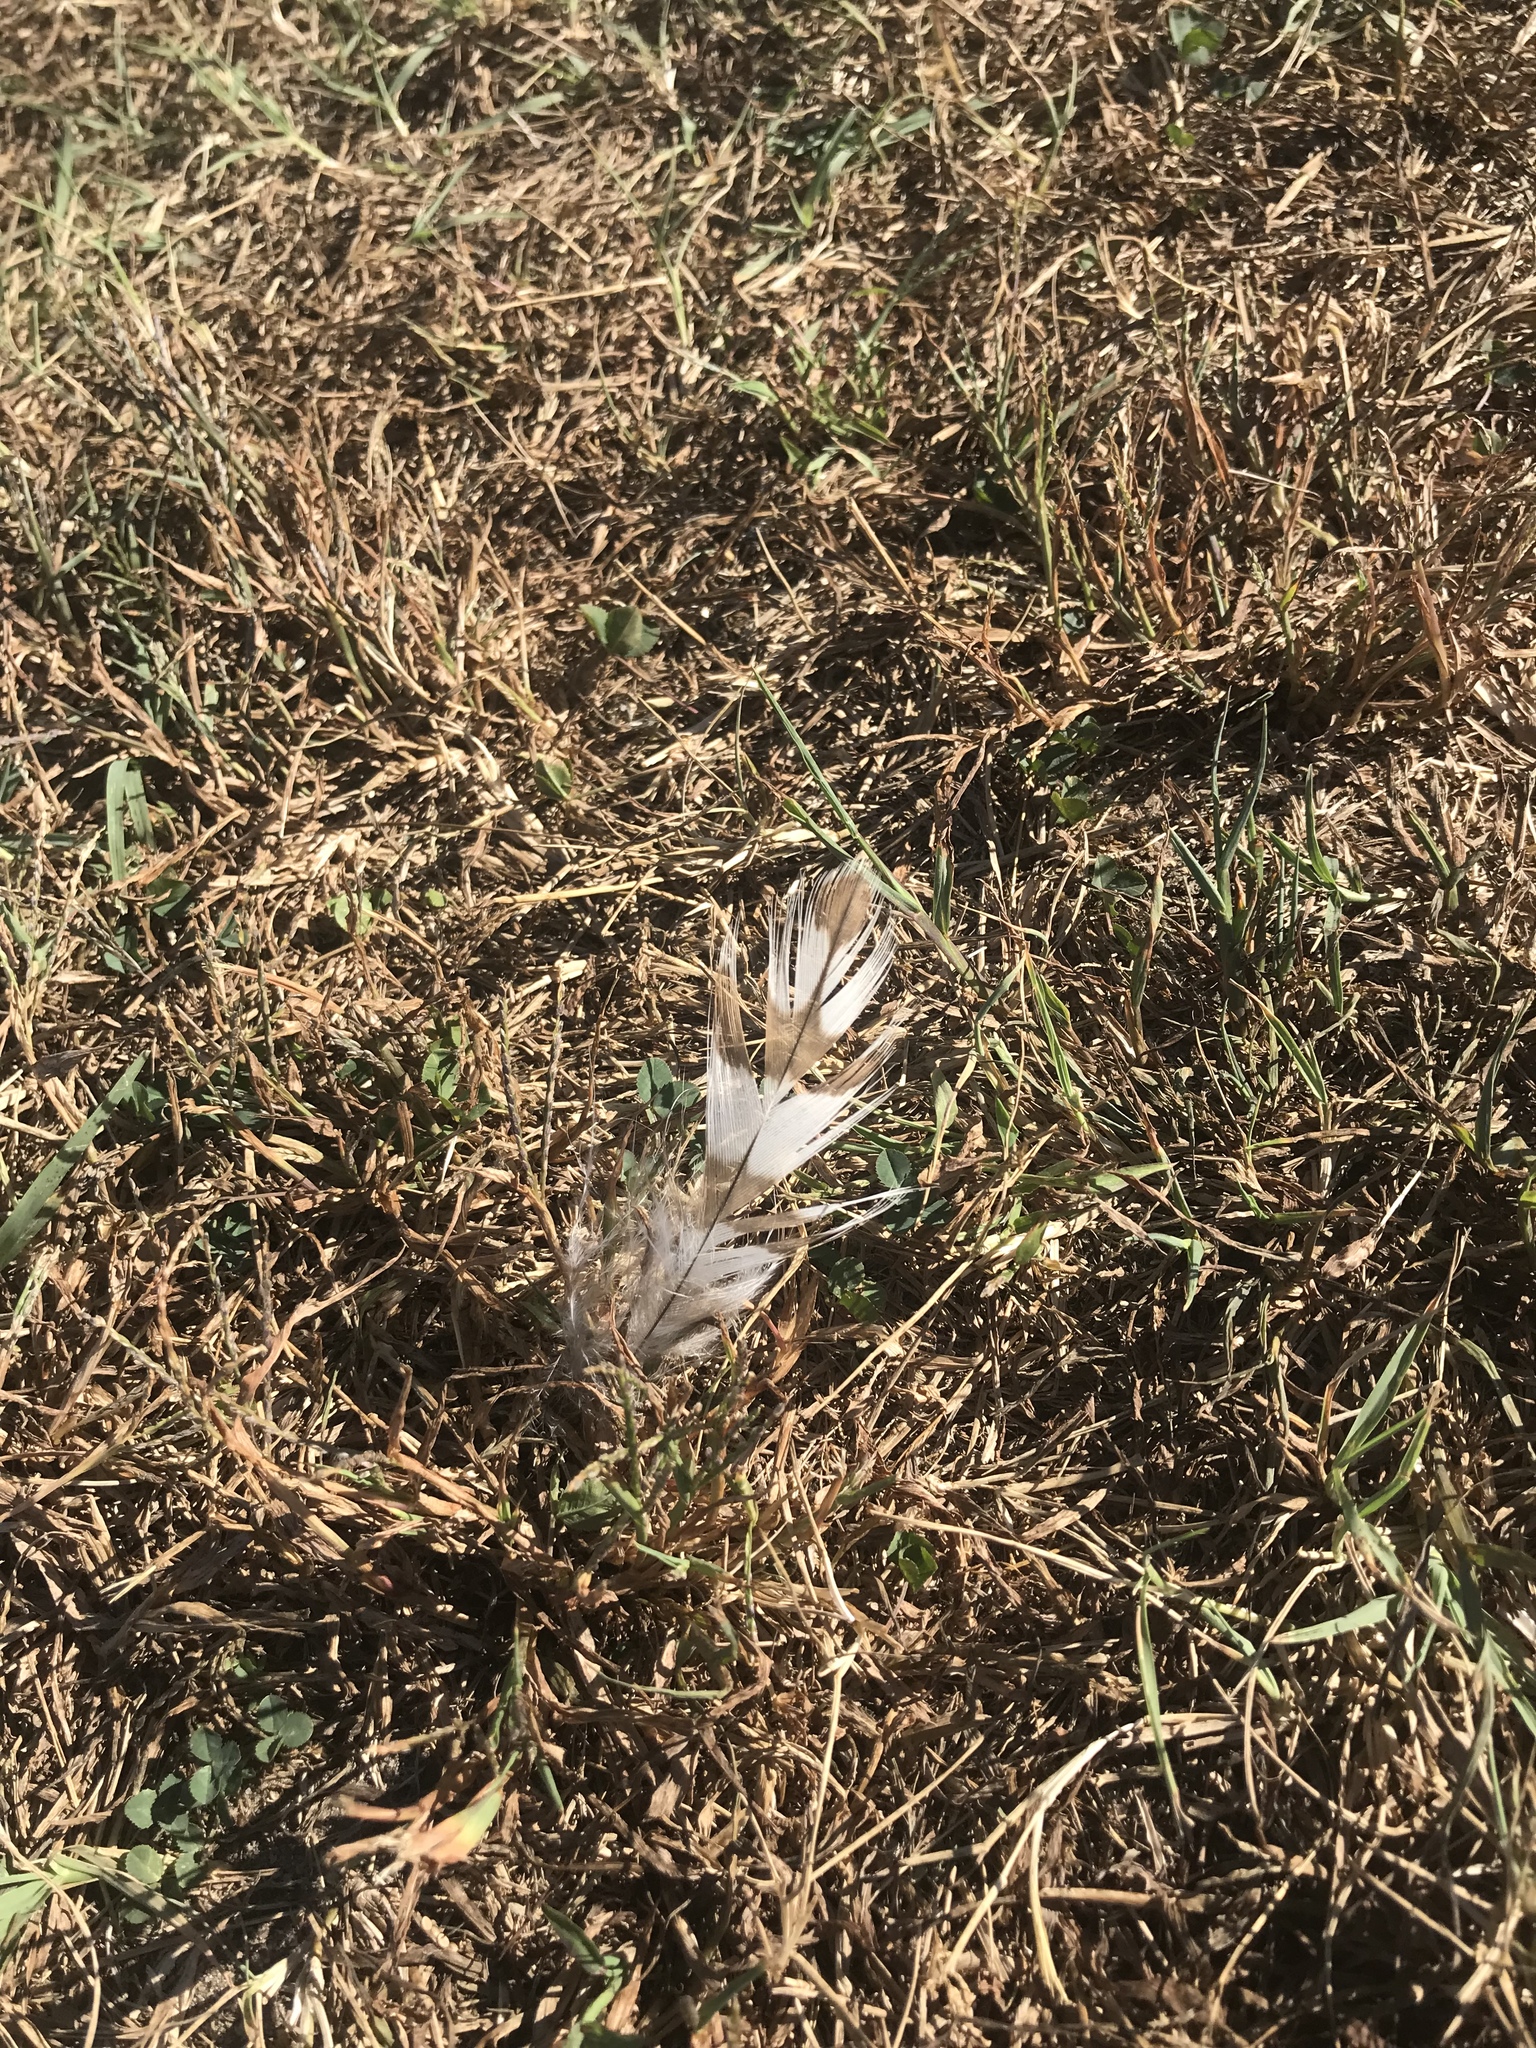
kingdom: Animalia
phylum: Chordata
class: Aves
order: Accipitriformes
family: Accipitridae
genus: Accipiter
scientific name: Accipiter striatus
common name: Sharp-shinned hawk
